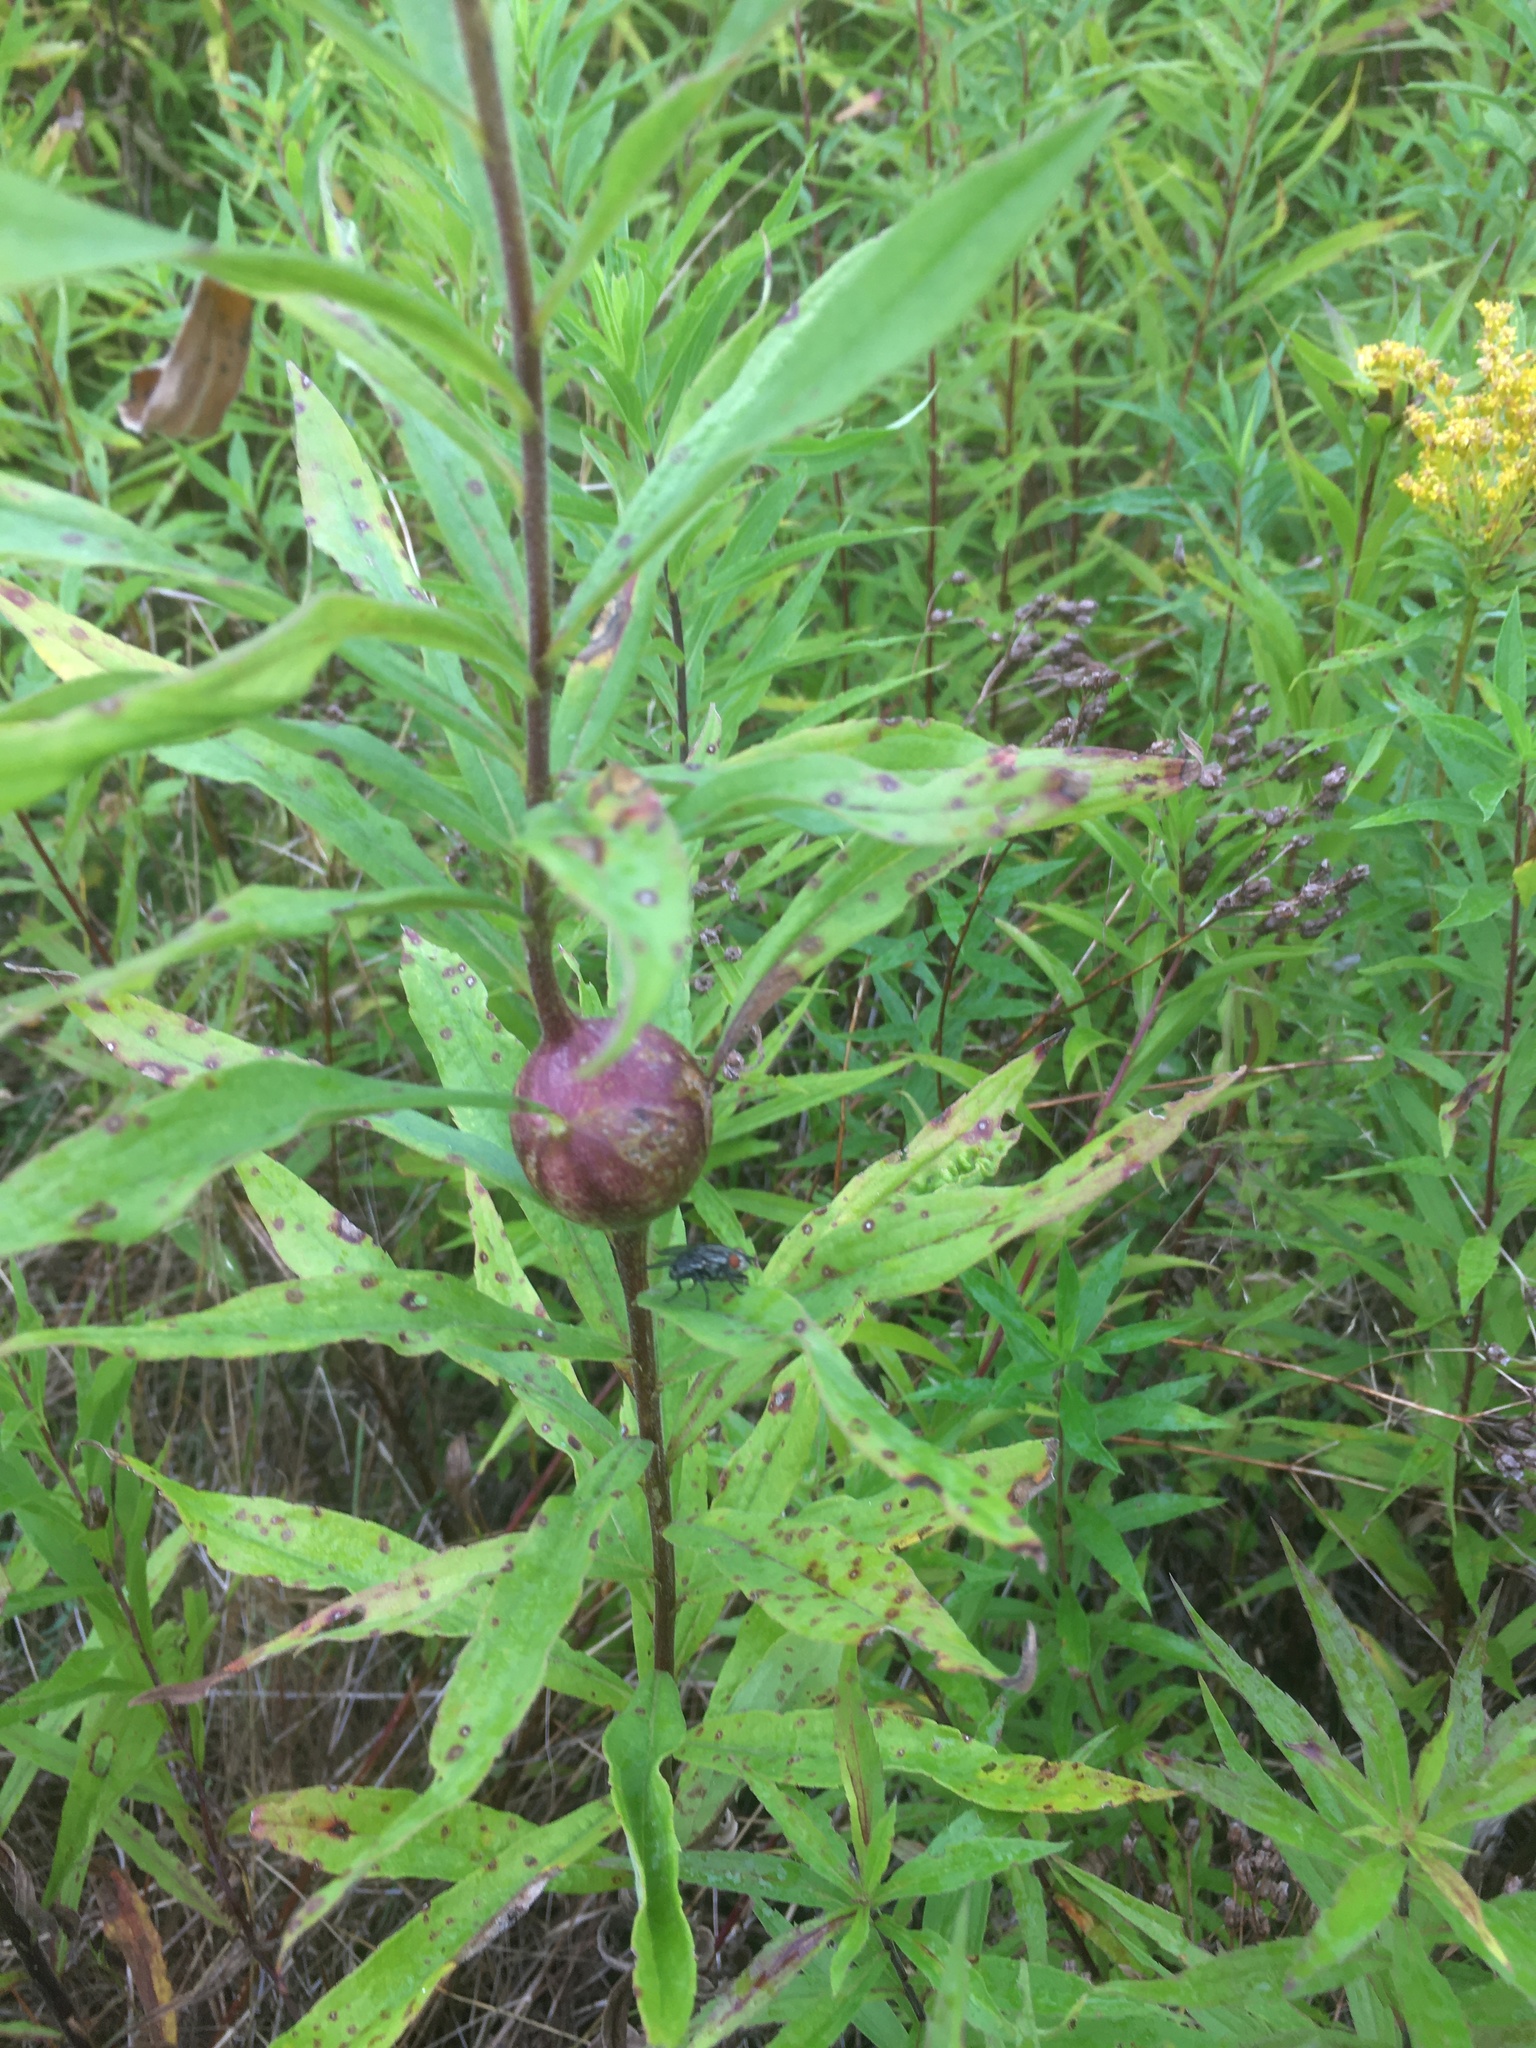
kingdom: Animalia
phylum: Arthropoda
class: Insecta
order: Diptera
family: Tephritidae
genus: Eurosta
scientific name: Eurosta solidaginis
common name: Goldenrod gall fly
